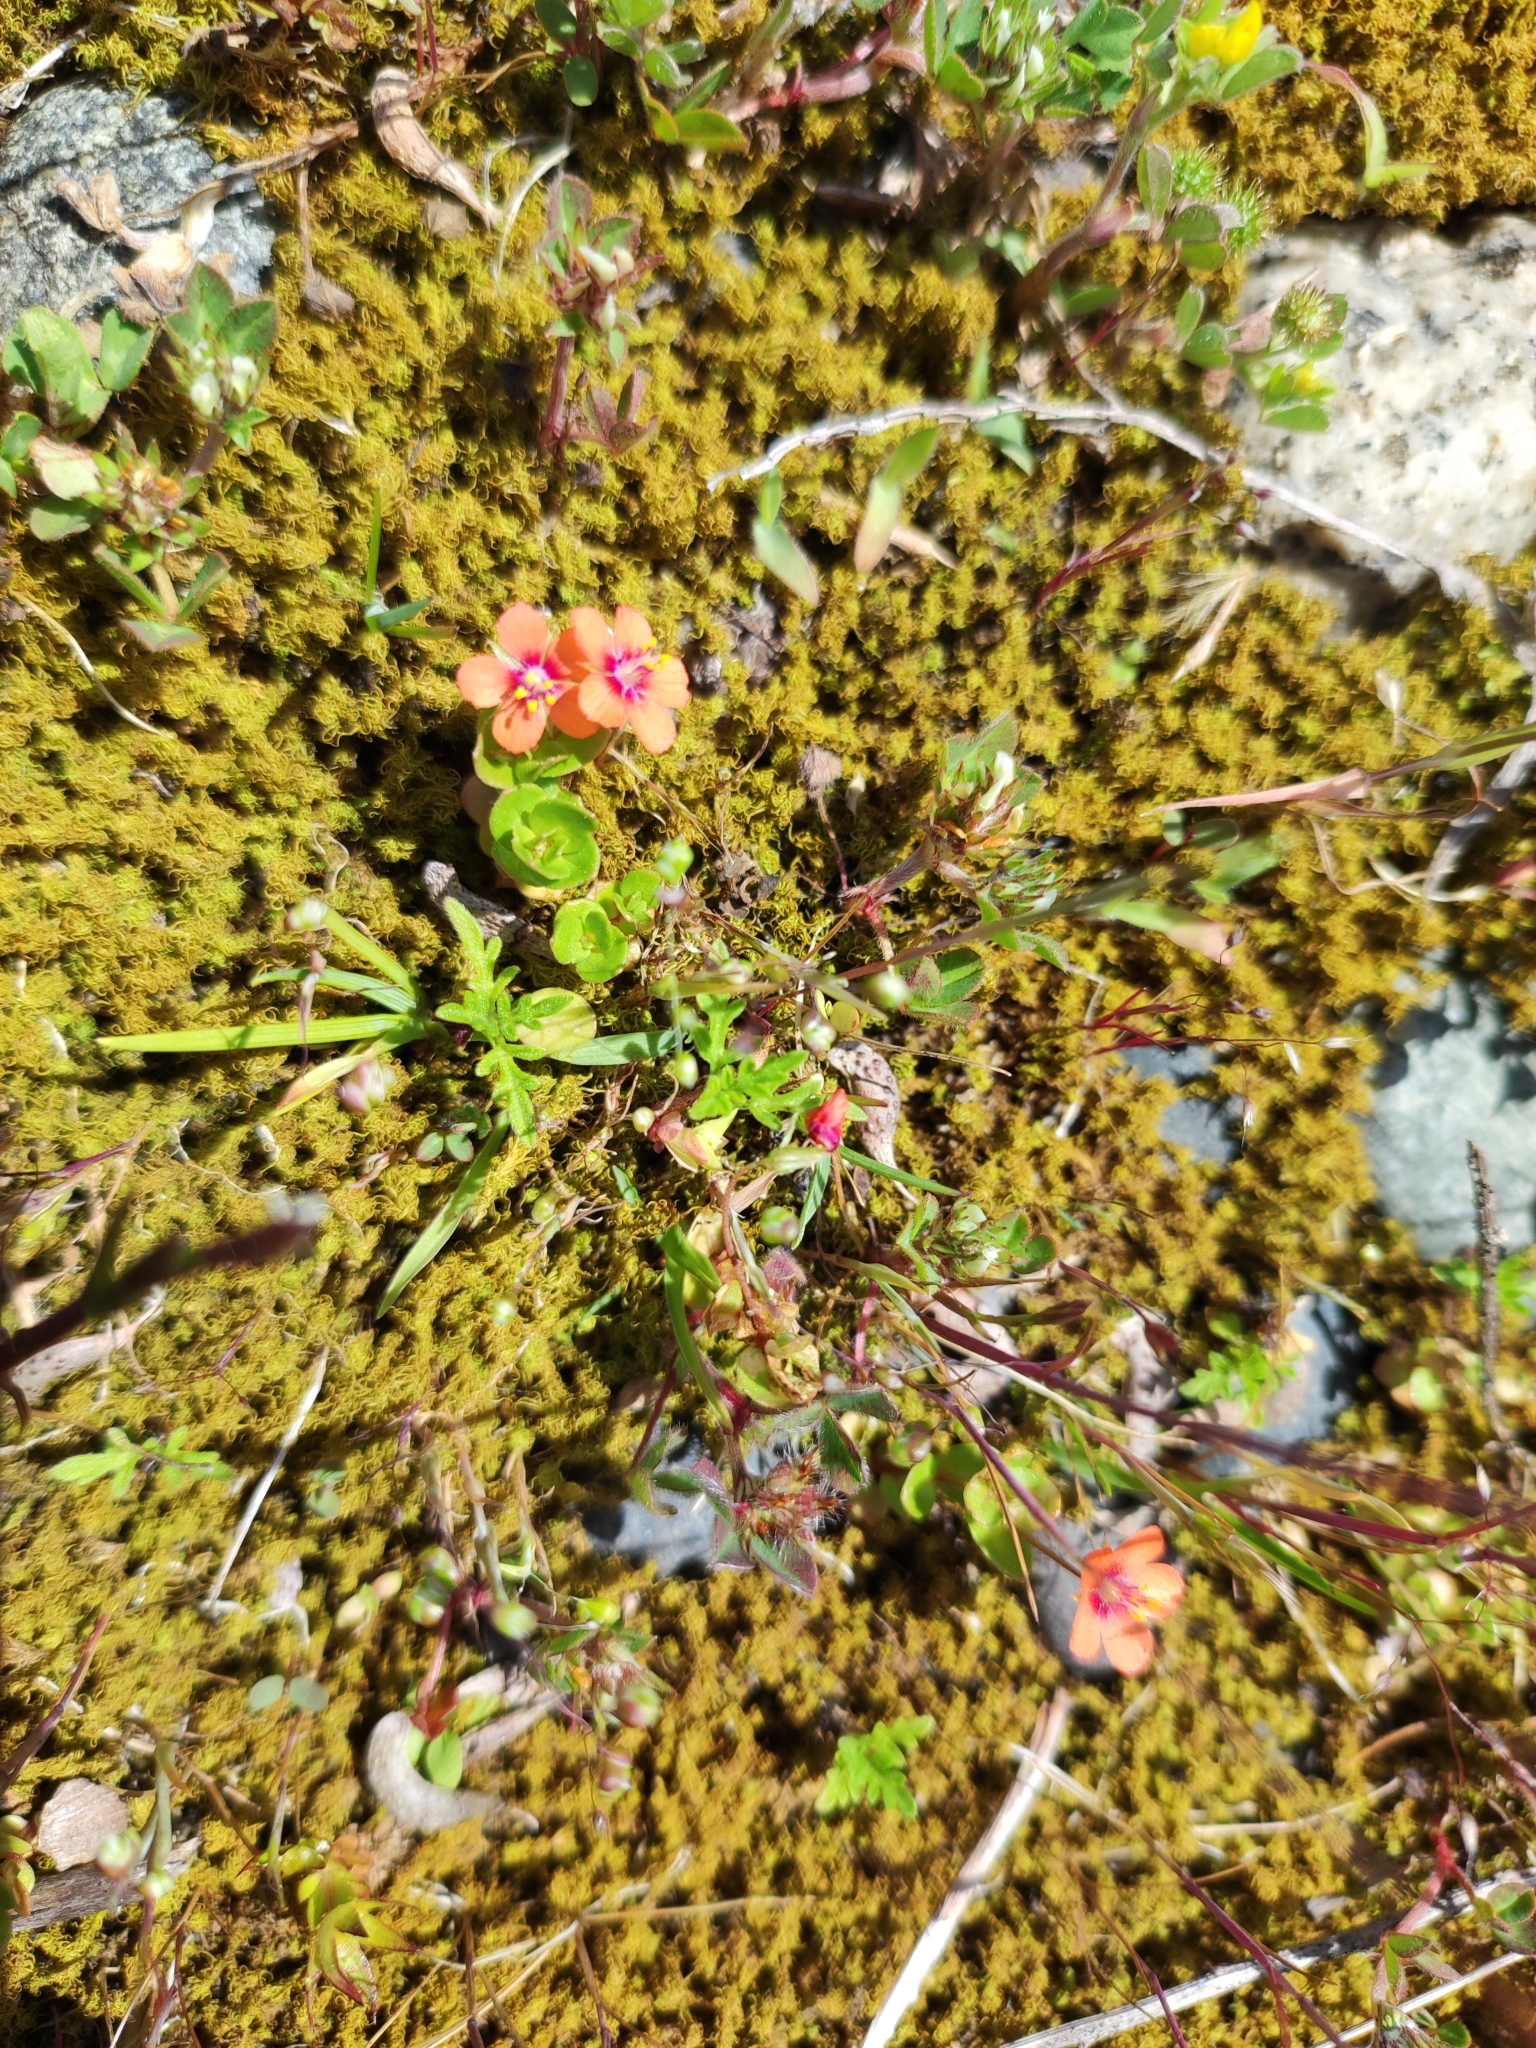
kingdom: Plantae
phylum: Tracheophyta
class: Magnoliopsida
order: Ericales
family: Primulaceae
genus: Lysimachia
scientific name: Lysimachia arvensis
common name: Scarlet pimpernel
